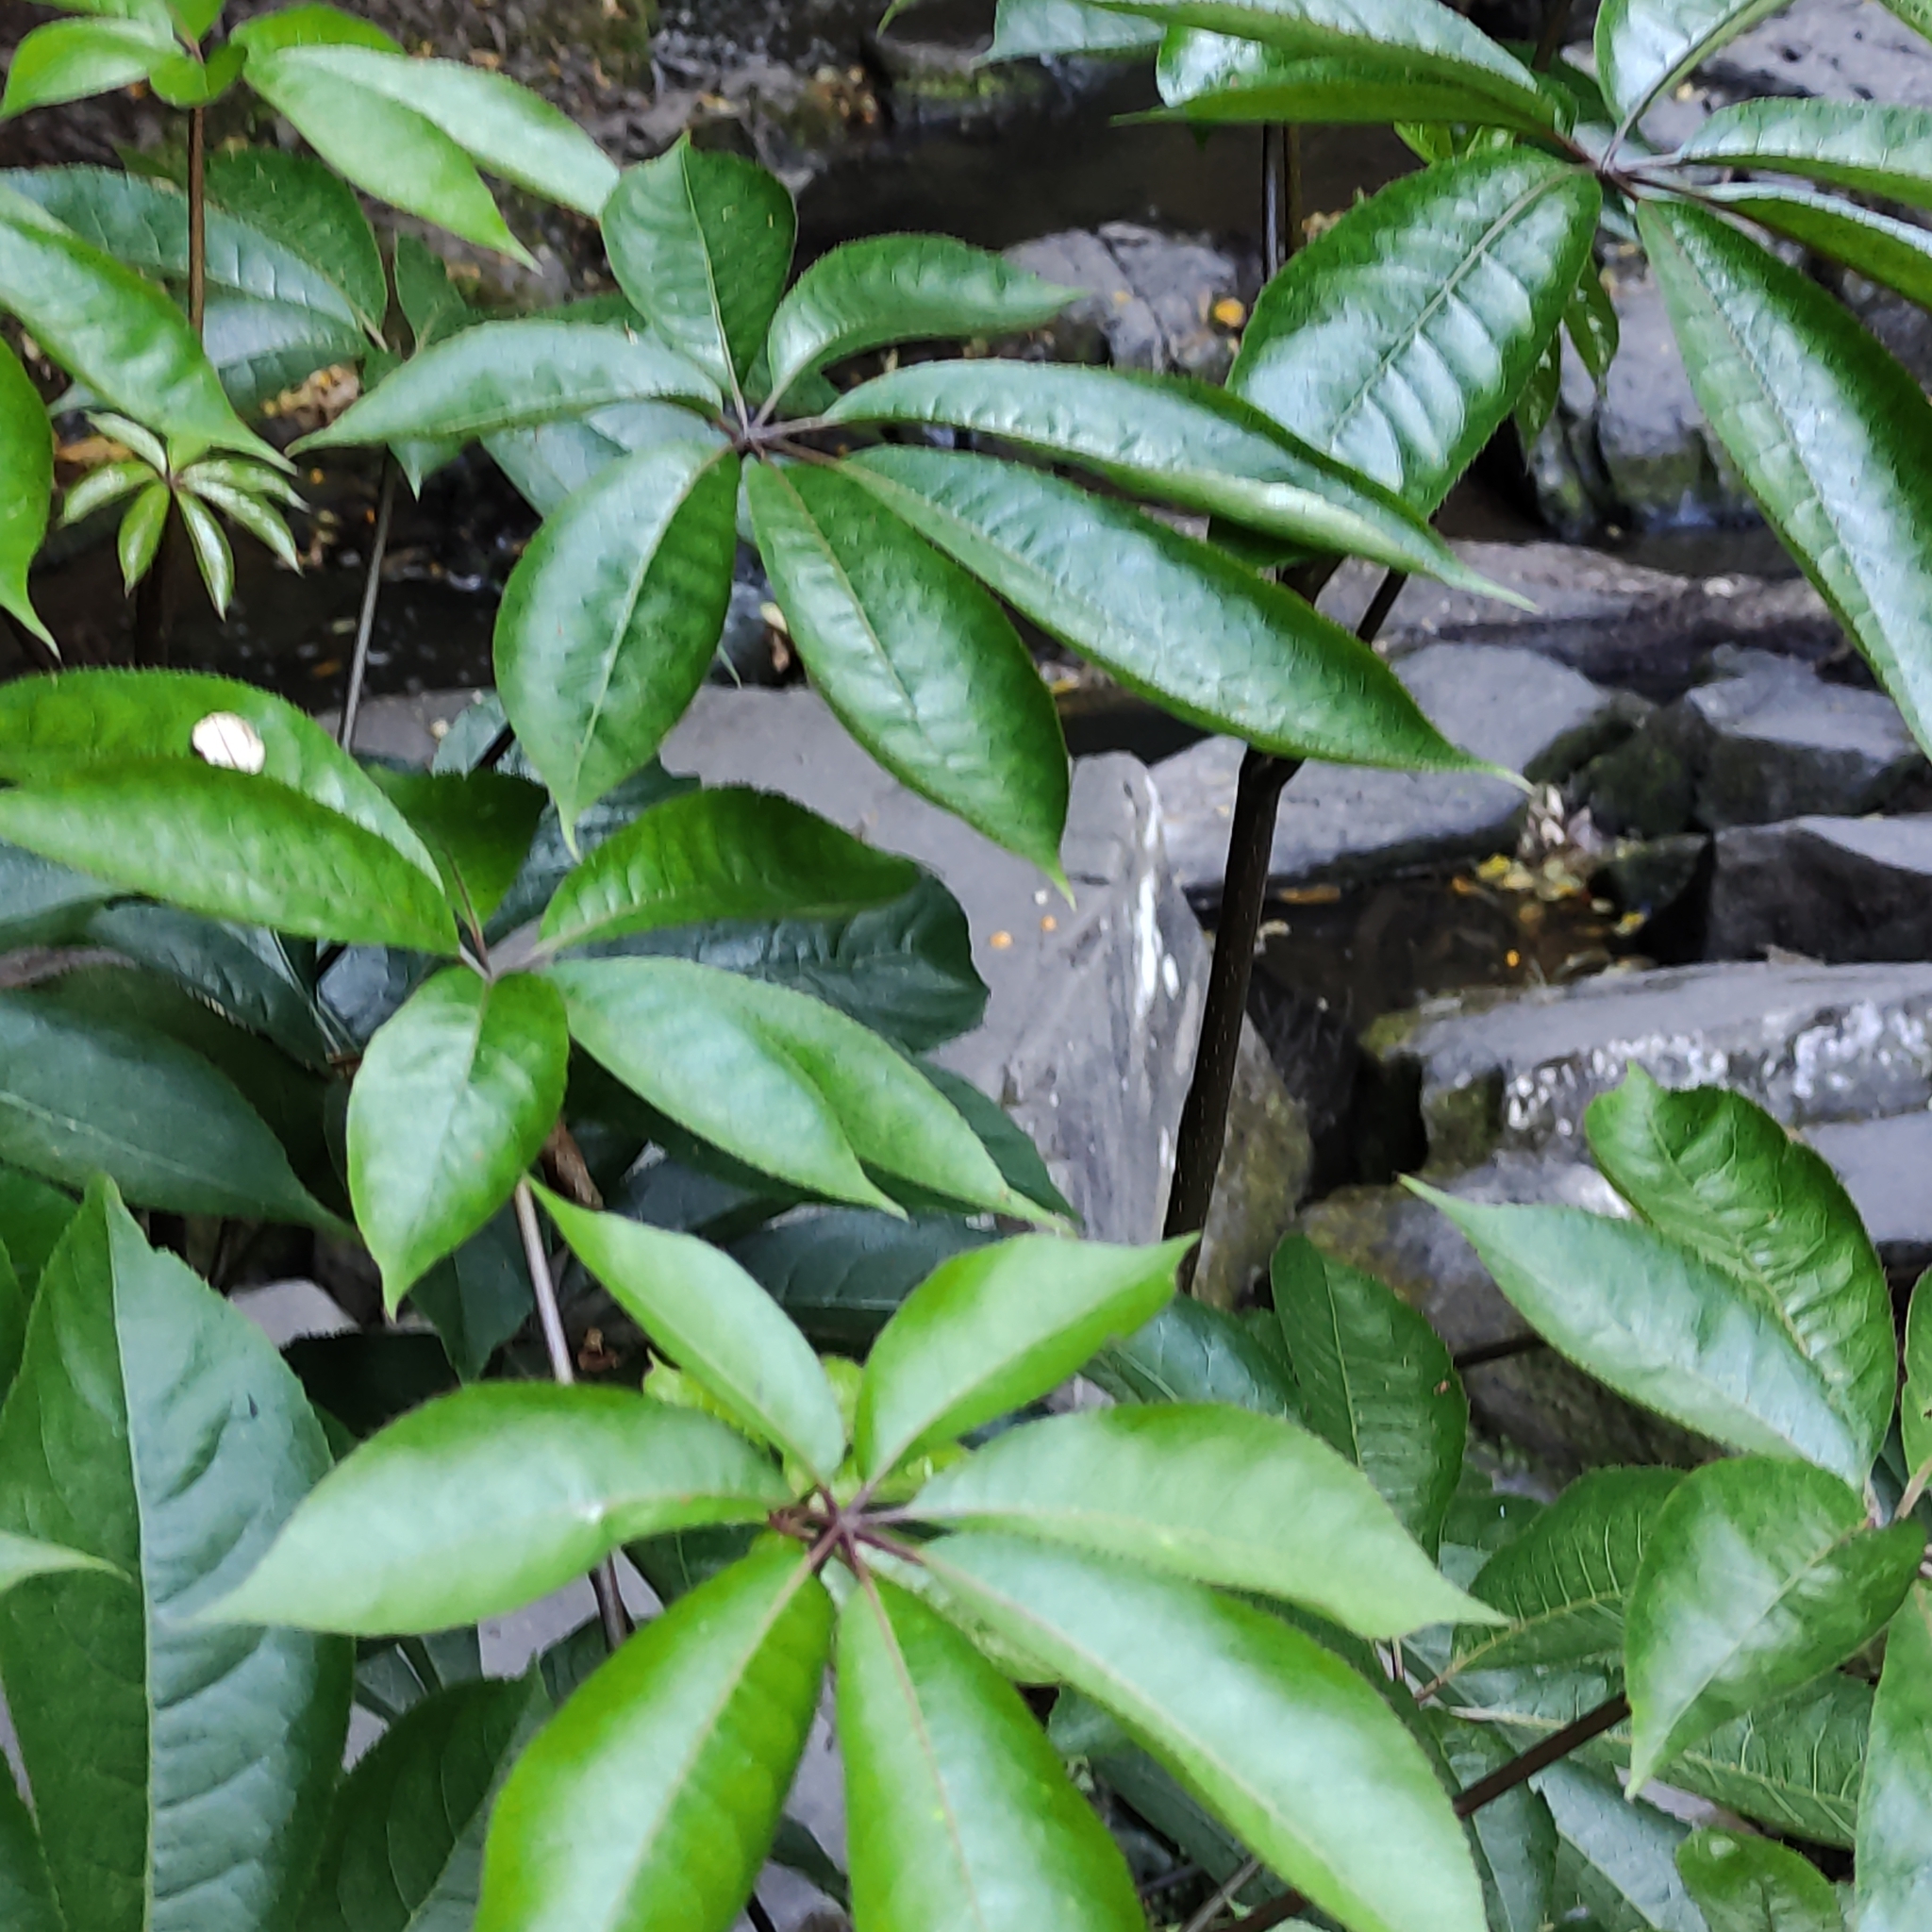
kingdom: Plantae
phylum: Tracheophyta
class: Magnoliopsida
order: Apiales
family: Araliaceae
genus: Schefflera
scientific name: Schefflera digitata
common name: Pate
